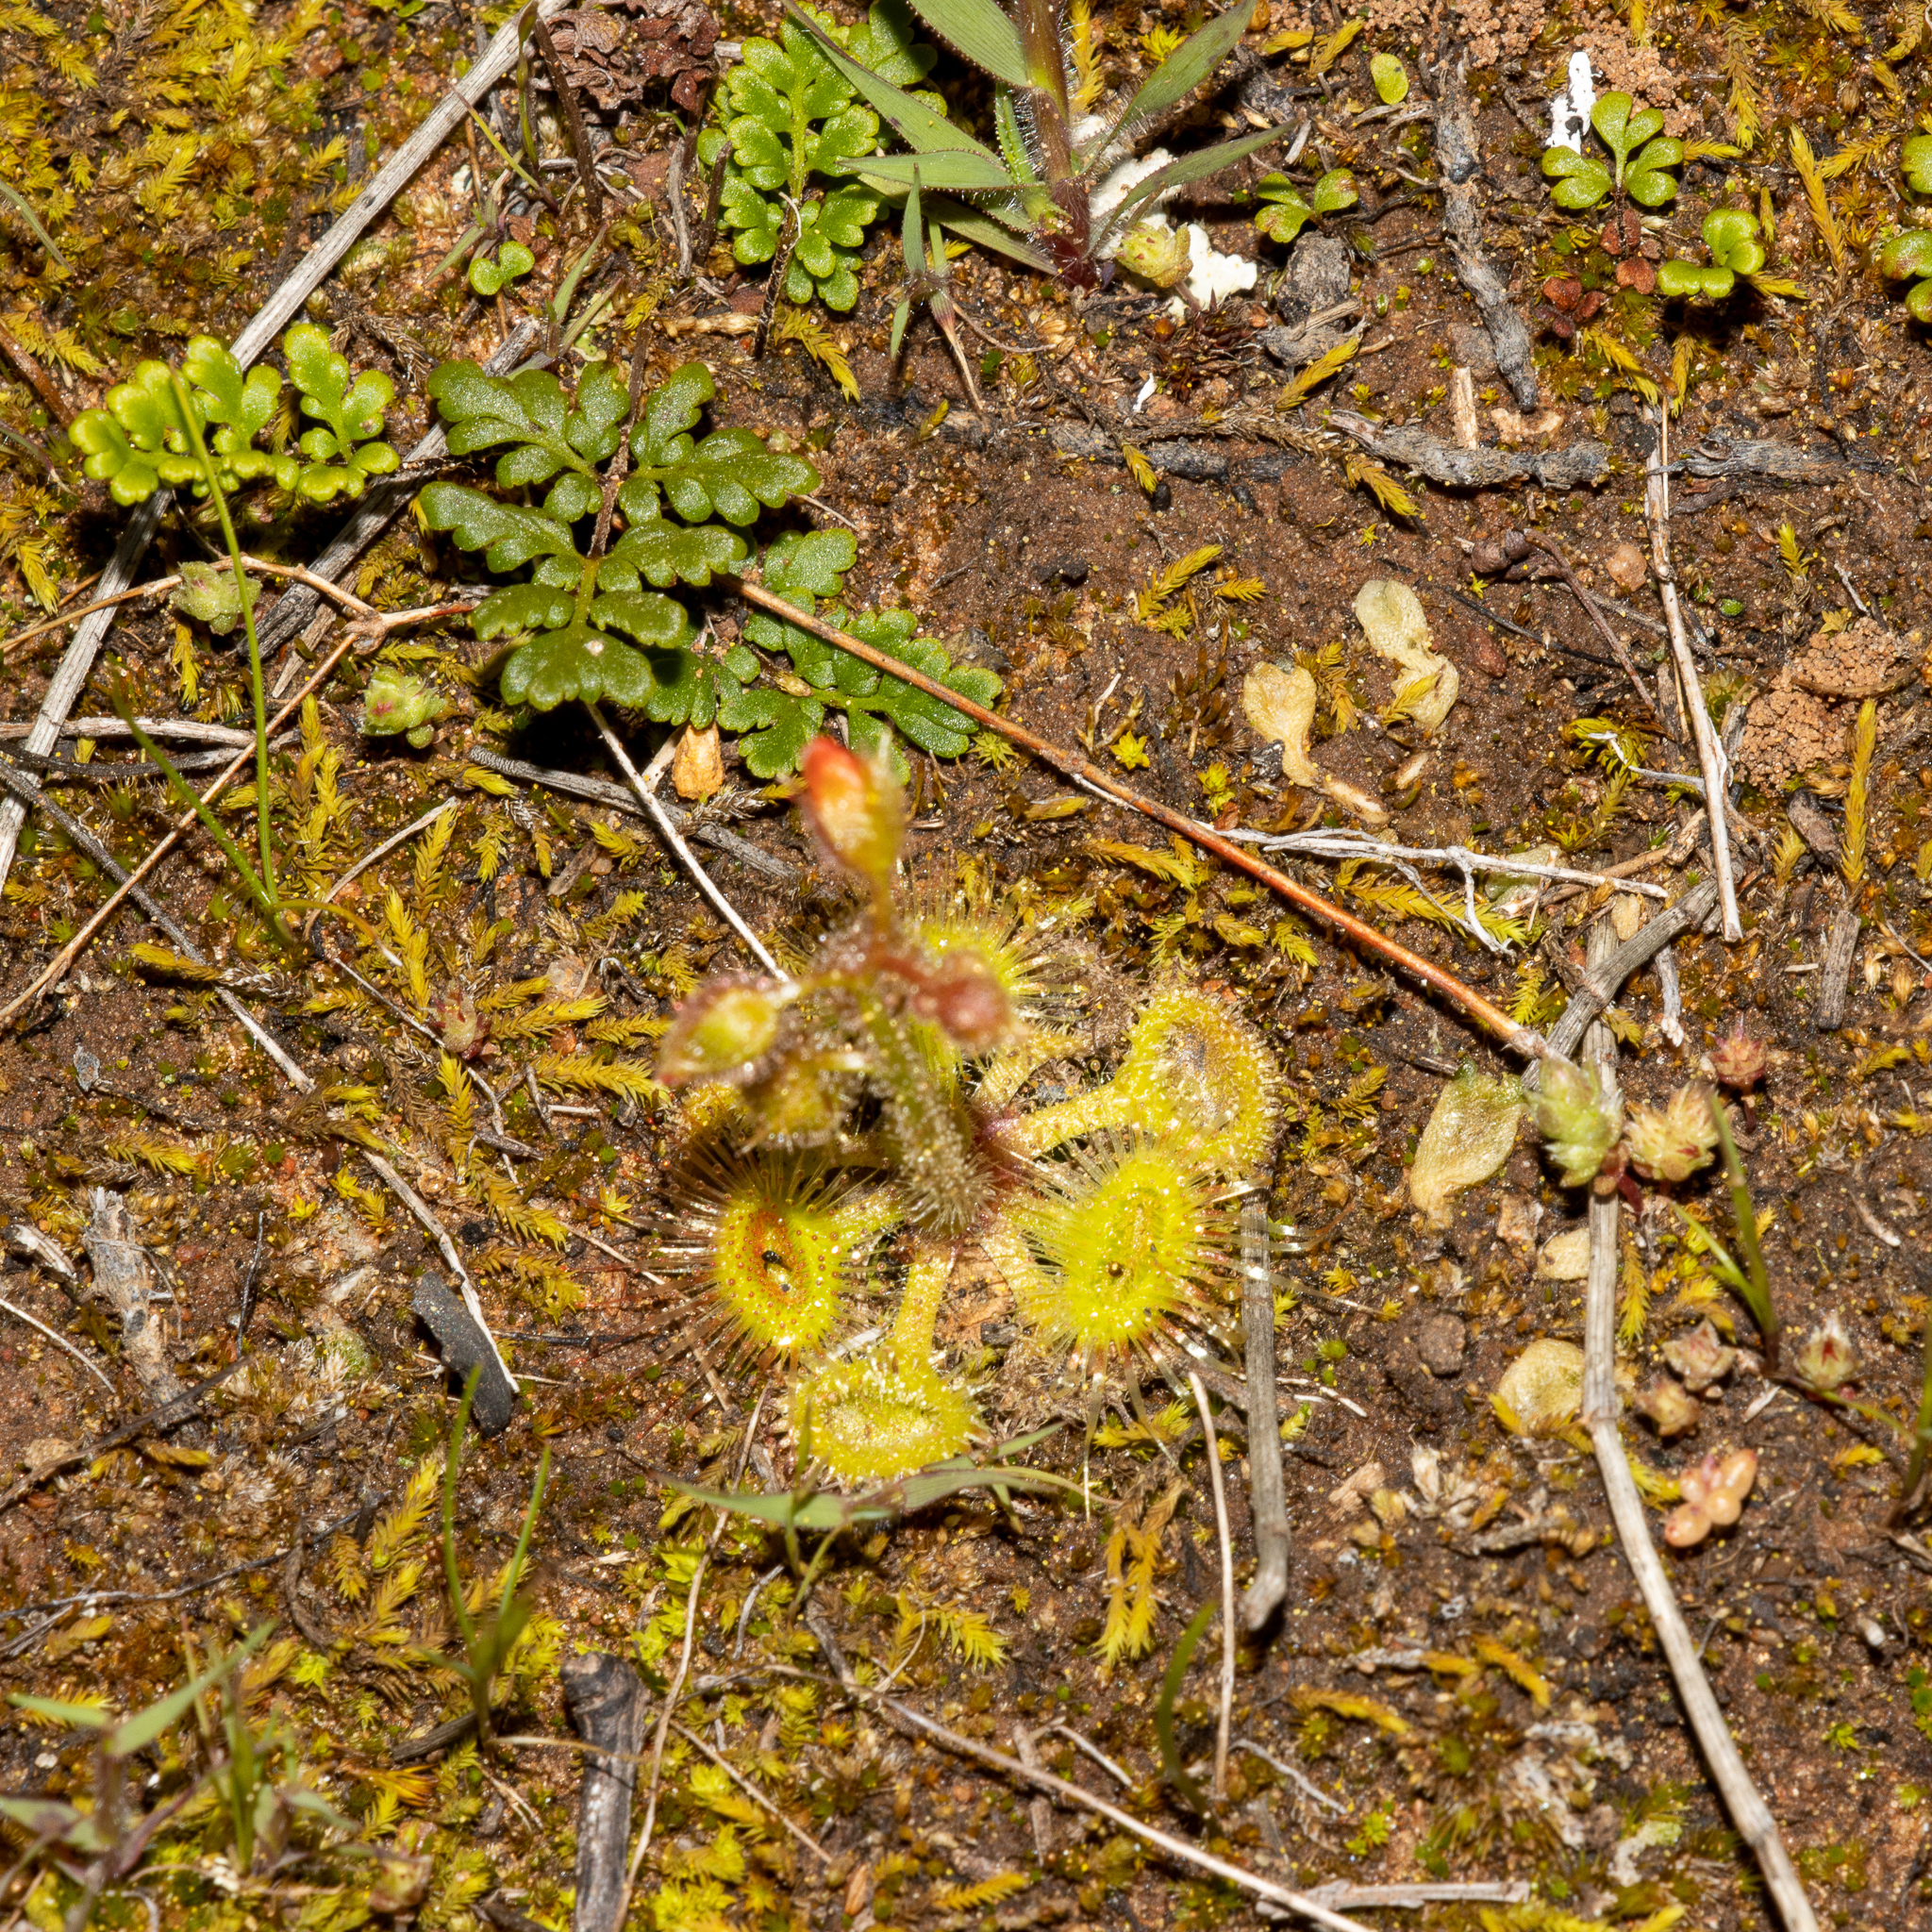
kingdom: Plantae
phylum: Tracheophyta
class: Magnoliopsida
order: Caryophyllales
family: Droseraceae
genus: Drosera
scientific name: Drosera glanduligera
